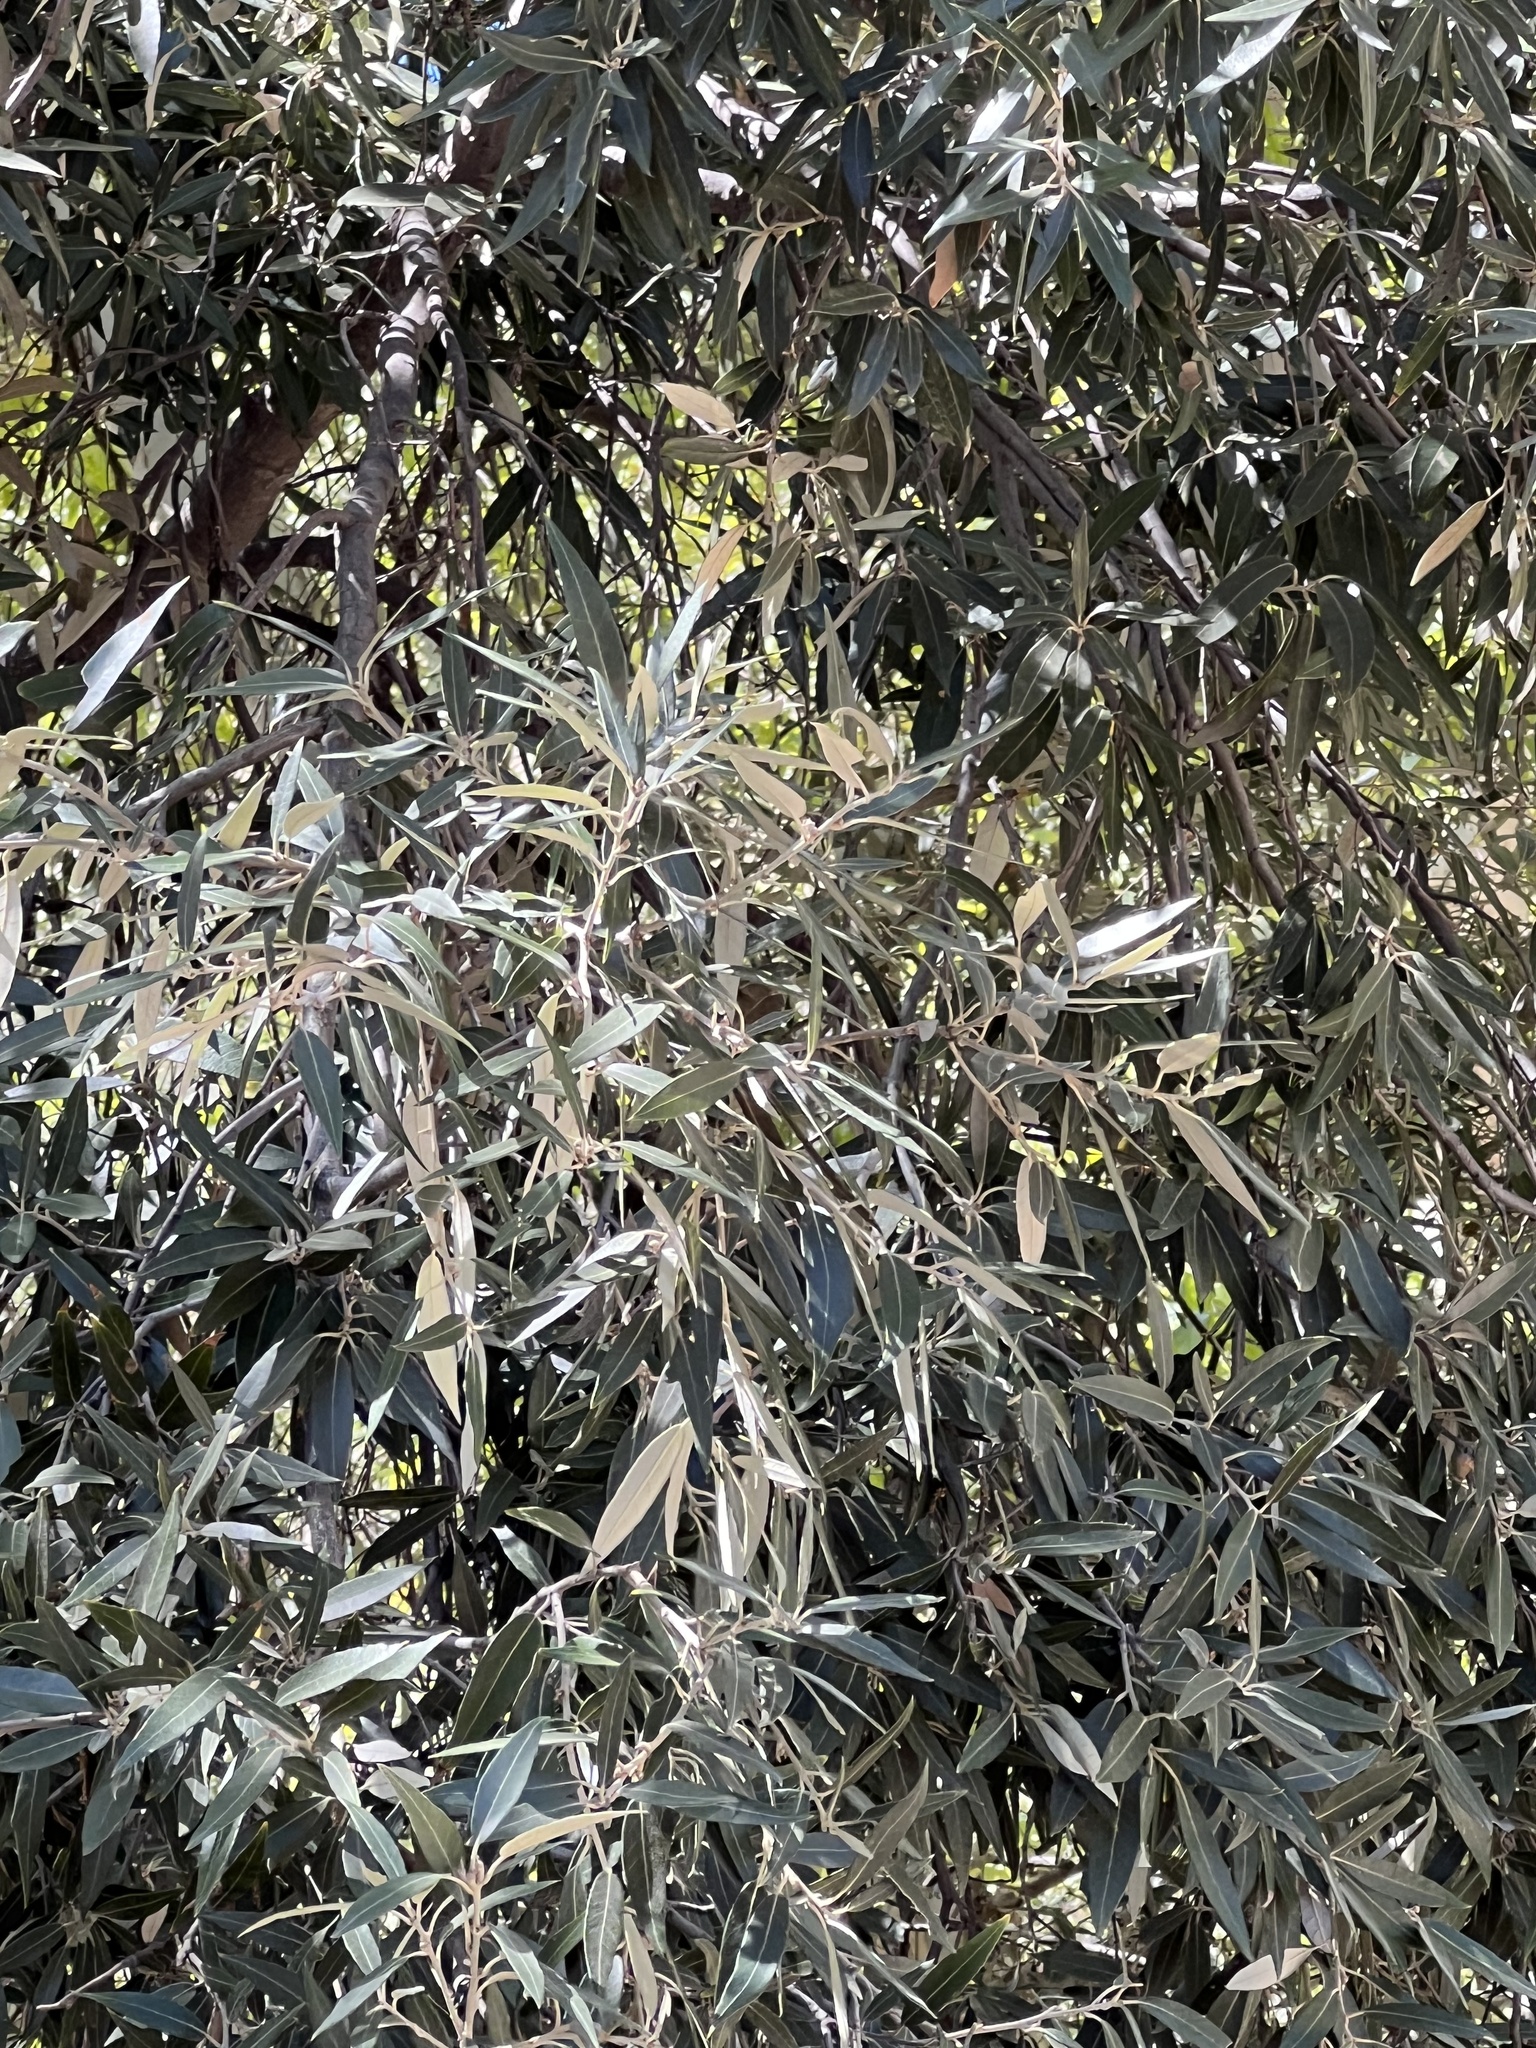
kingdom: Plantae
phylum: Tracheophyta
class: Magnoliopsida
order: Fagales
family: Fagaceae
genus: Quercus
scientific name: Quercus hypoleucoides
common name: Silverleaf oak
